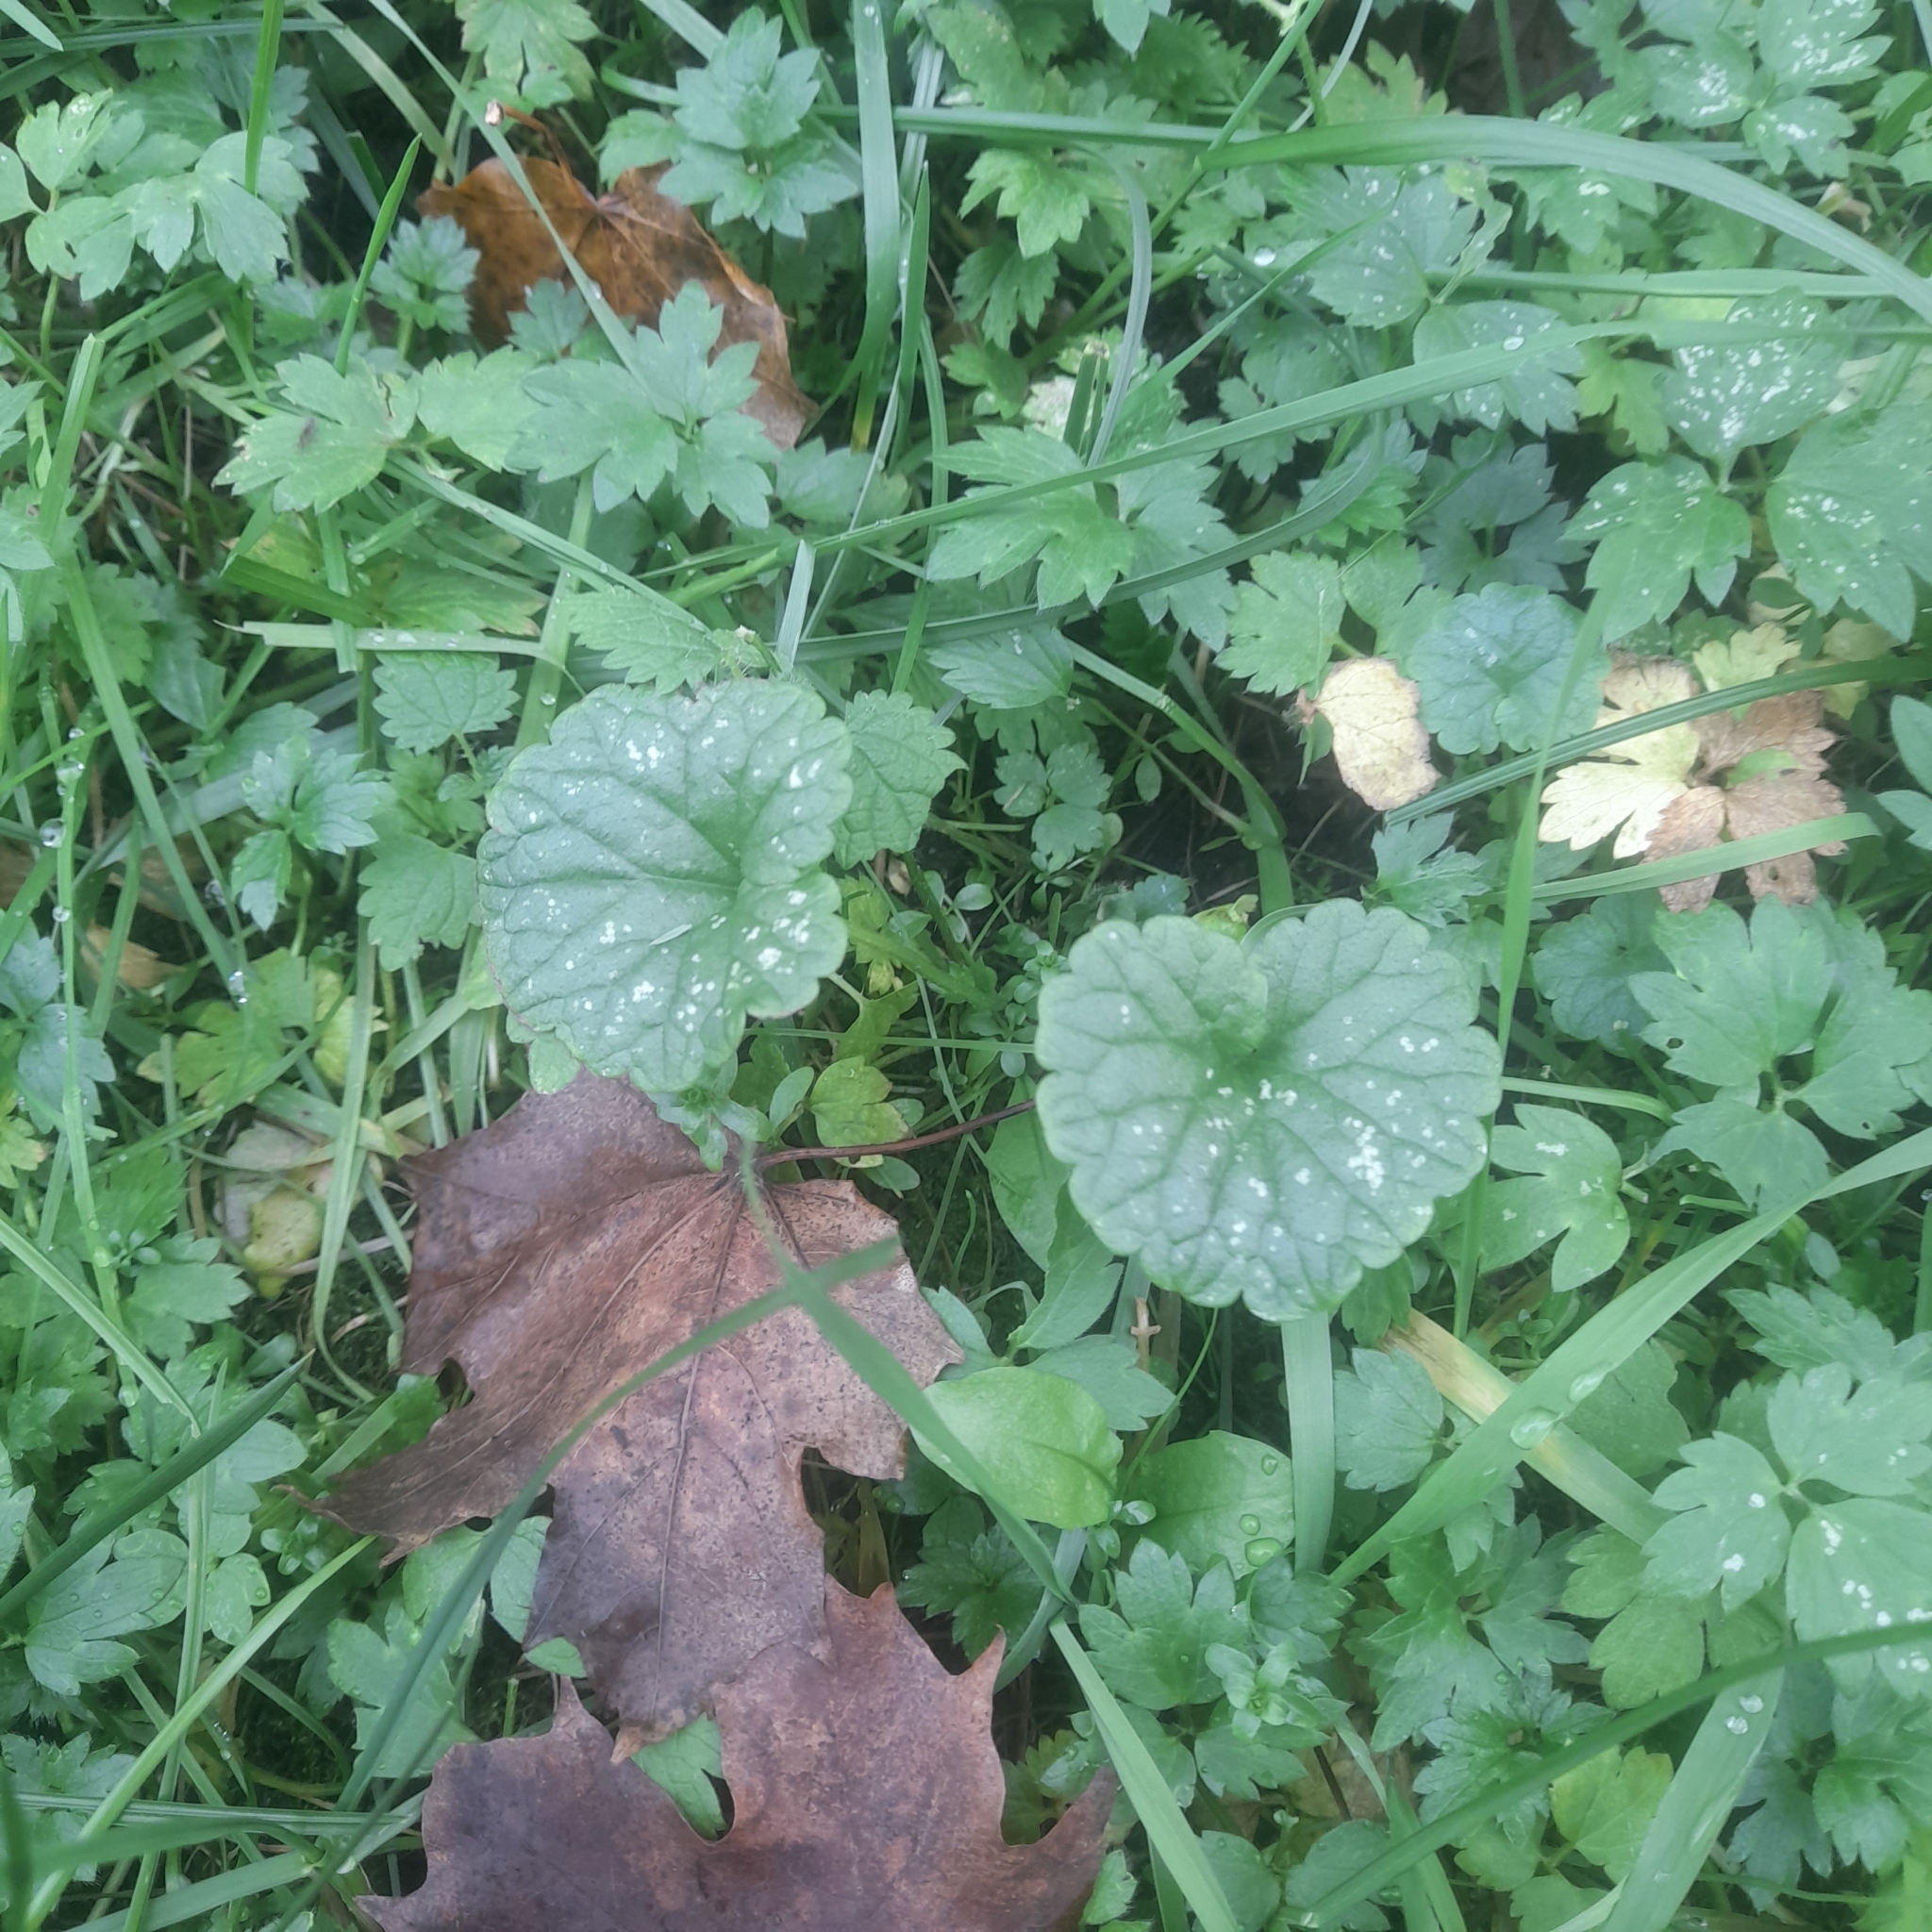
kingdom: Plantae
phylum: Tracheophyta
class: Magnoliopsida
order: Lamiales
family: Lamiaceae
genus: Glechoma
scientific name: Glechoma hederacea
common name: Ground ivy
